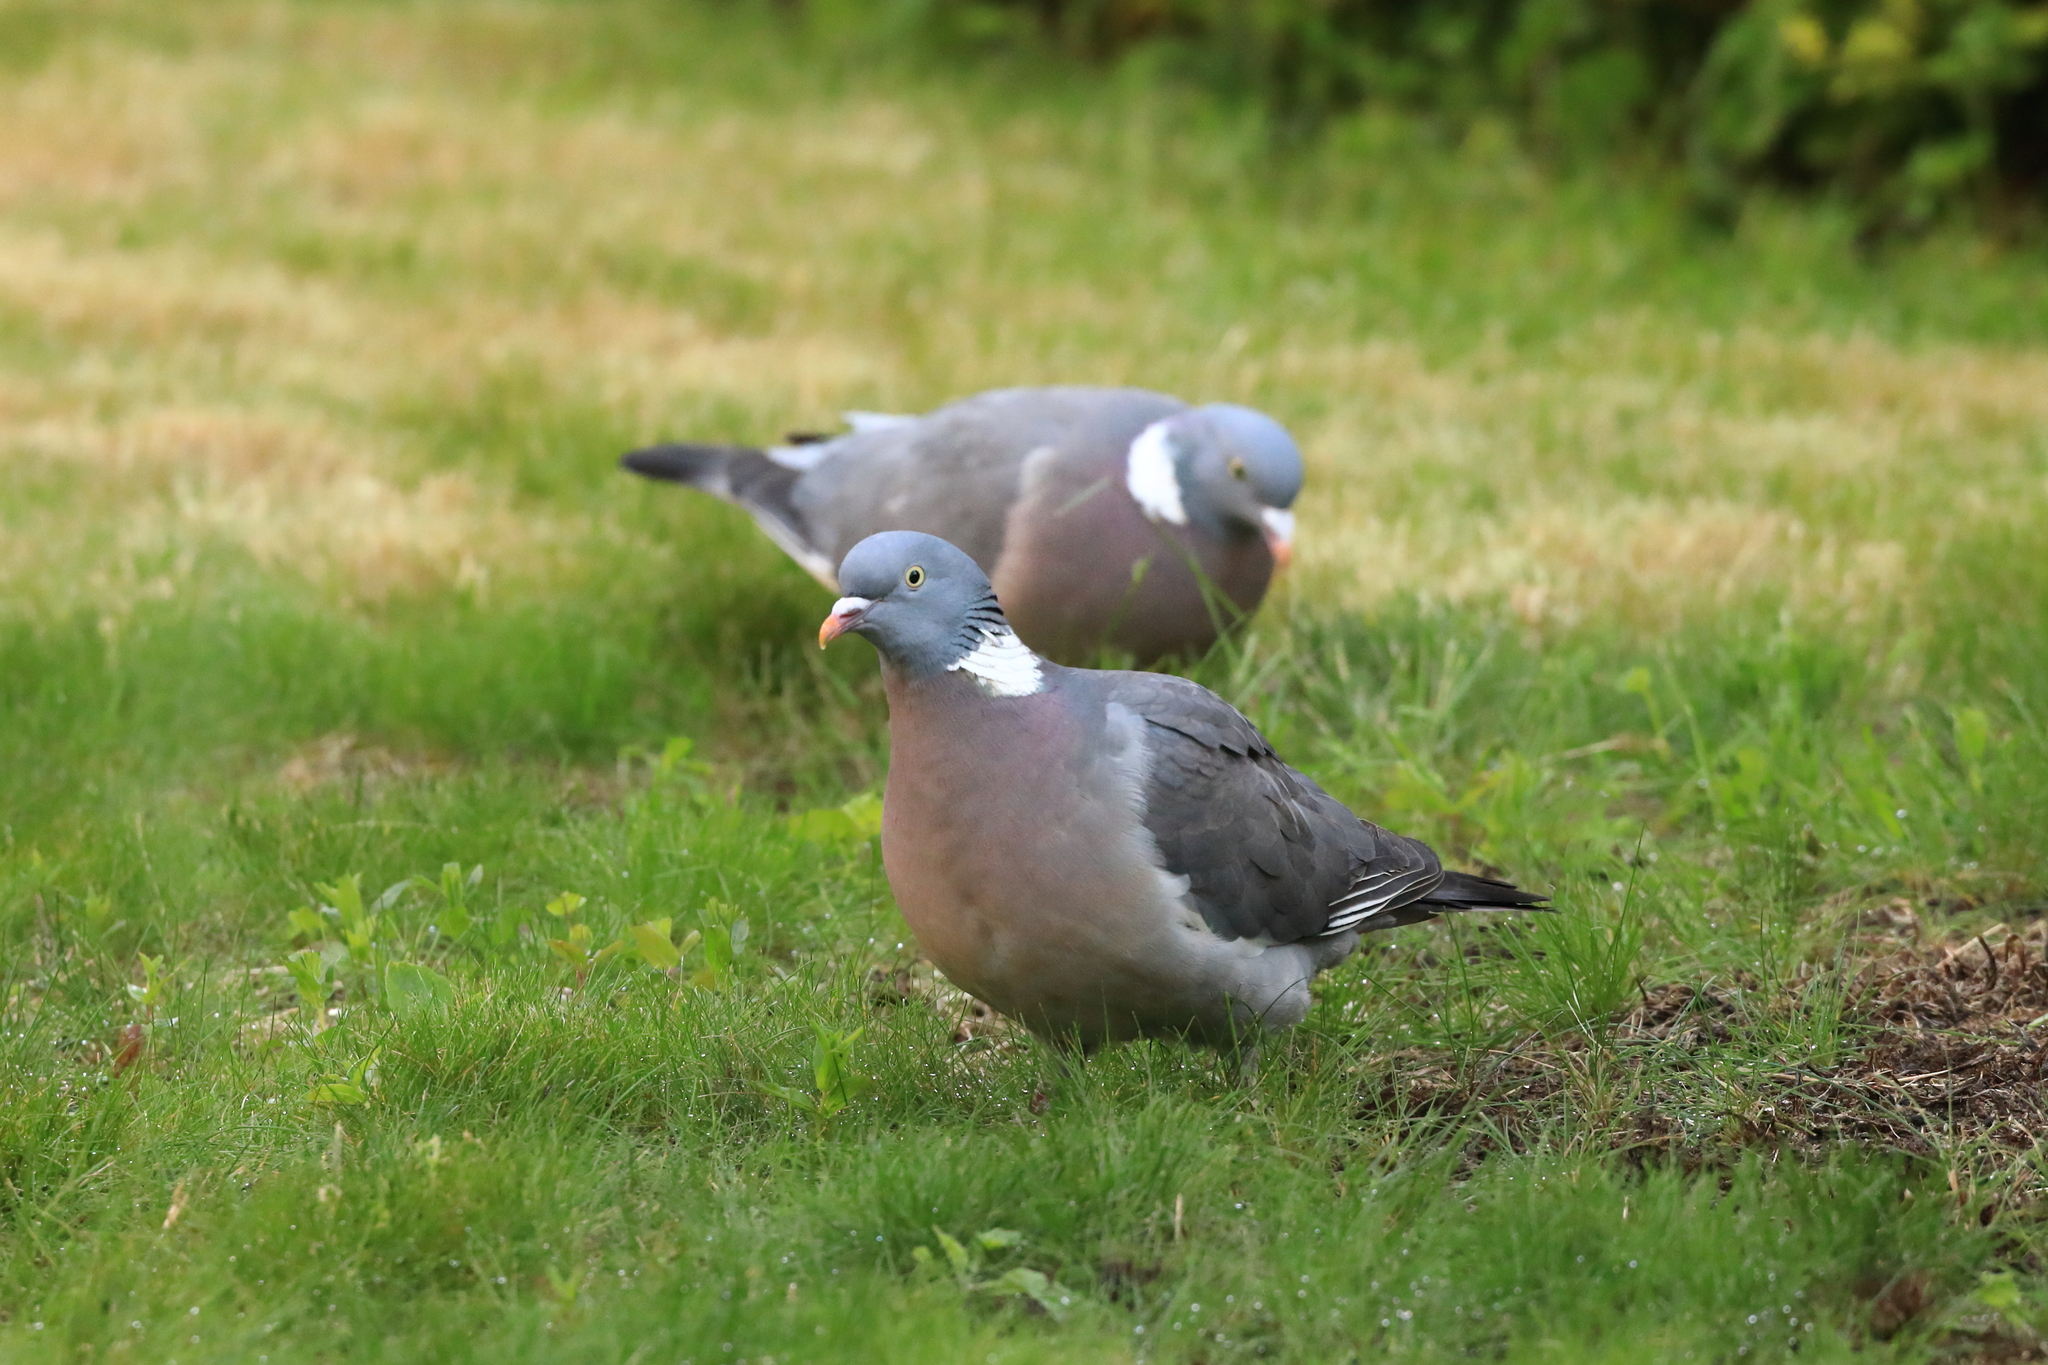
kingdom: Animalia
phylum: Chordata
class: Aves
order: Columbiformes
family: Columbidae
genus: Columba
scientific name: Columba palumbus
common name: Common wood pigeon
